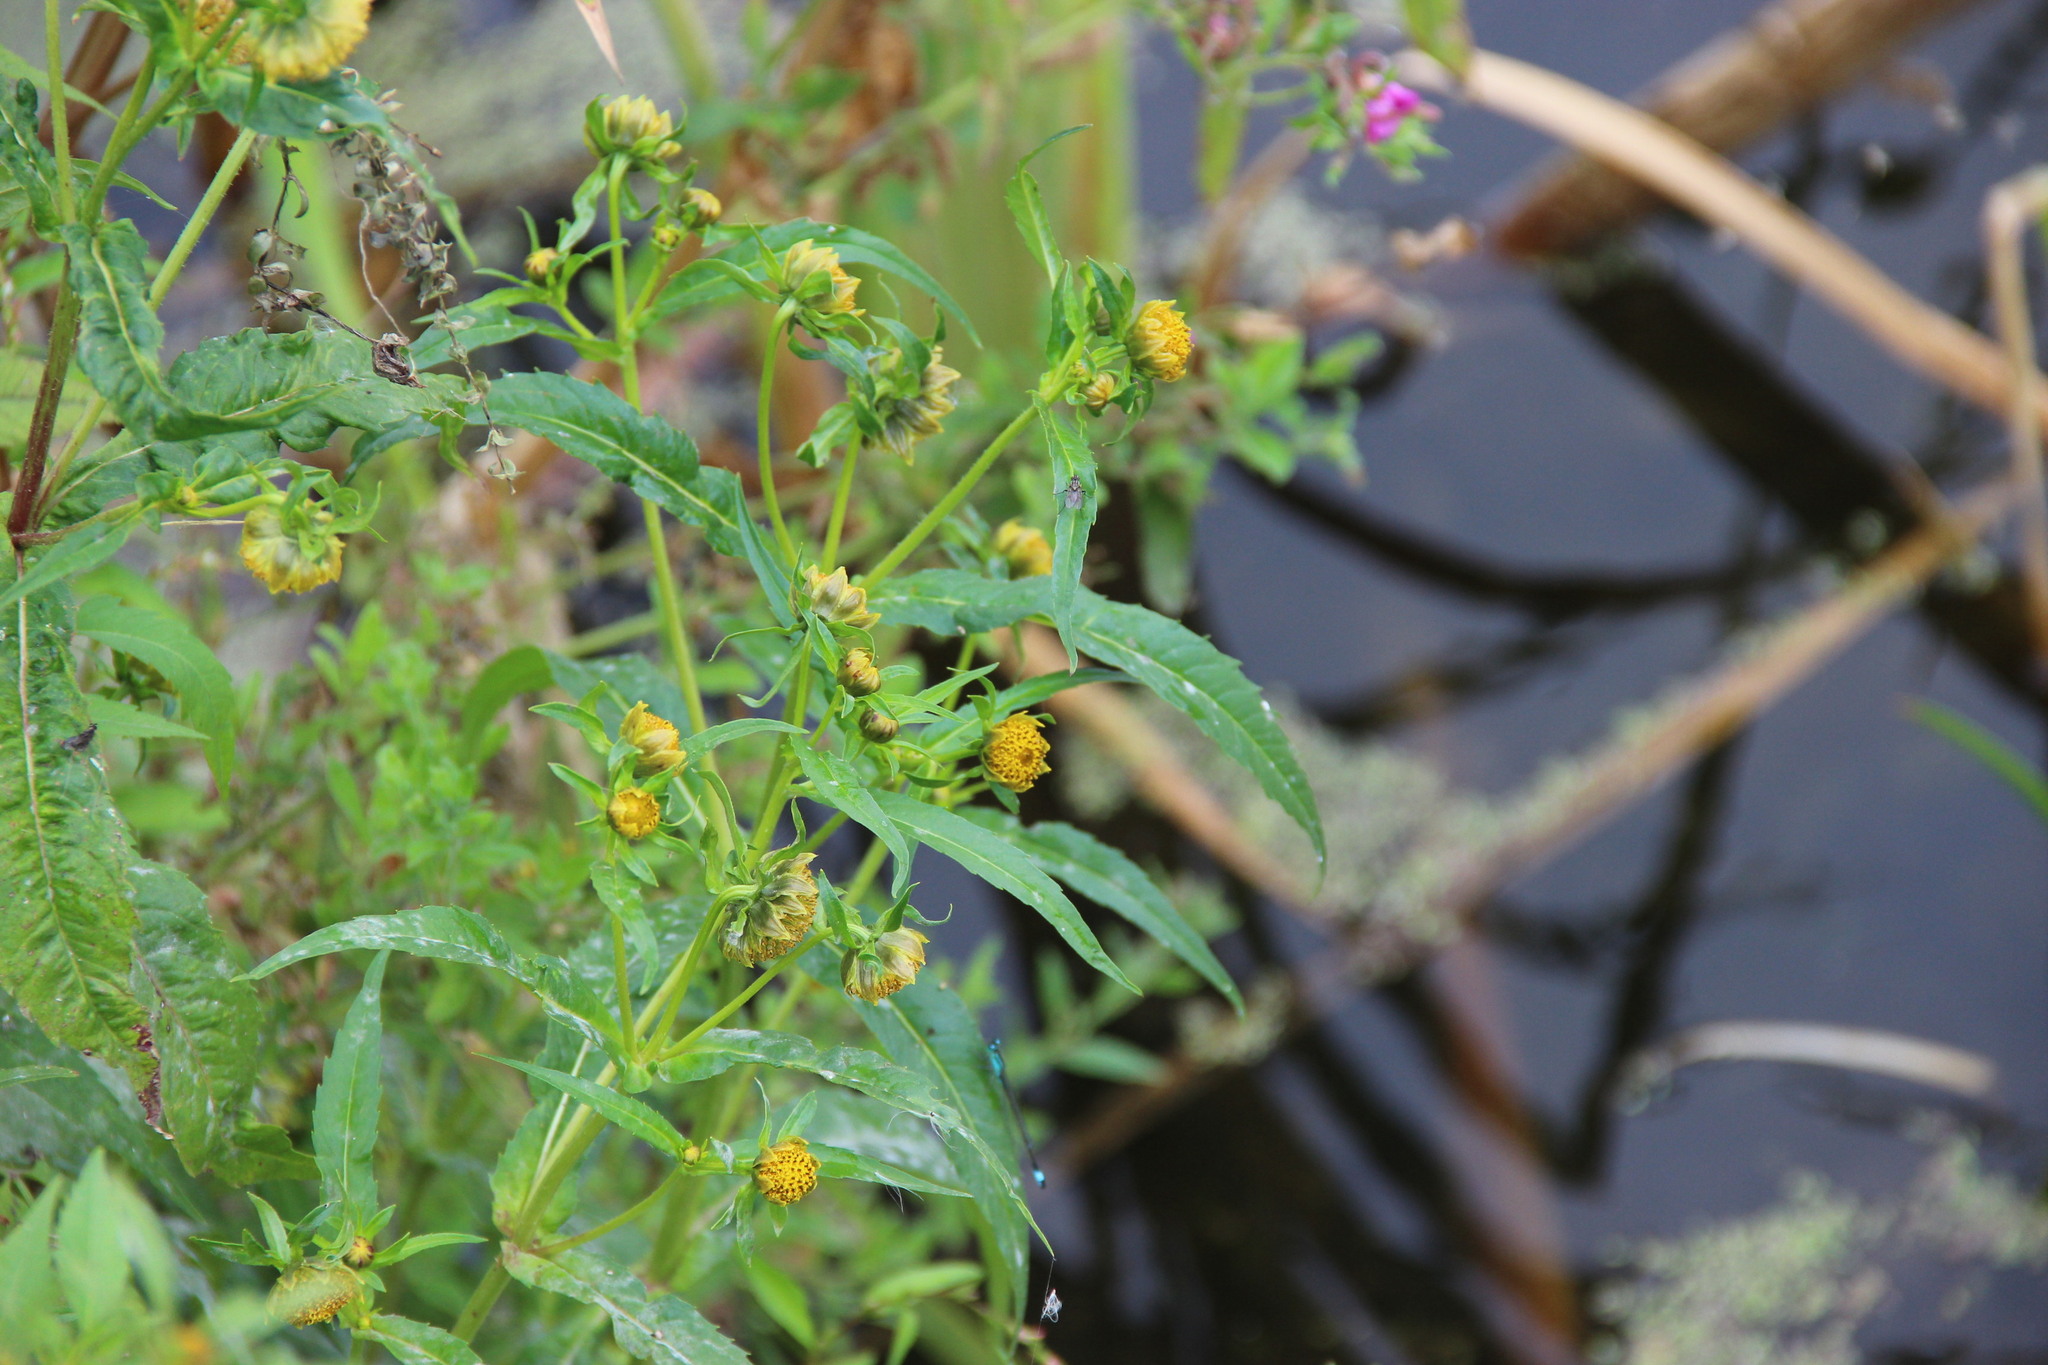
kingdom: Plantae
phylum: Tracheophyta
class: Magnoliopsida
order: Asterales
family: Asteraceae
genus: Bidens
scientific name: Bidens cernua
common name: Nodding bur-marigold
